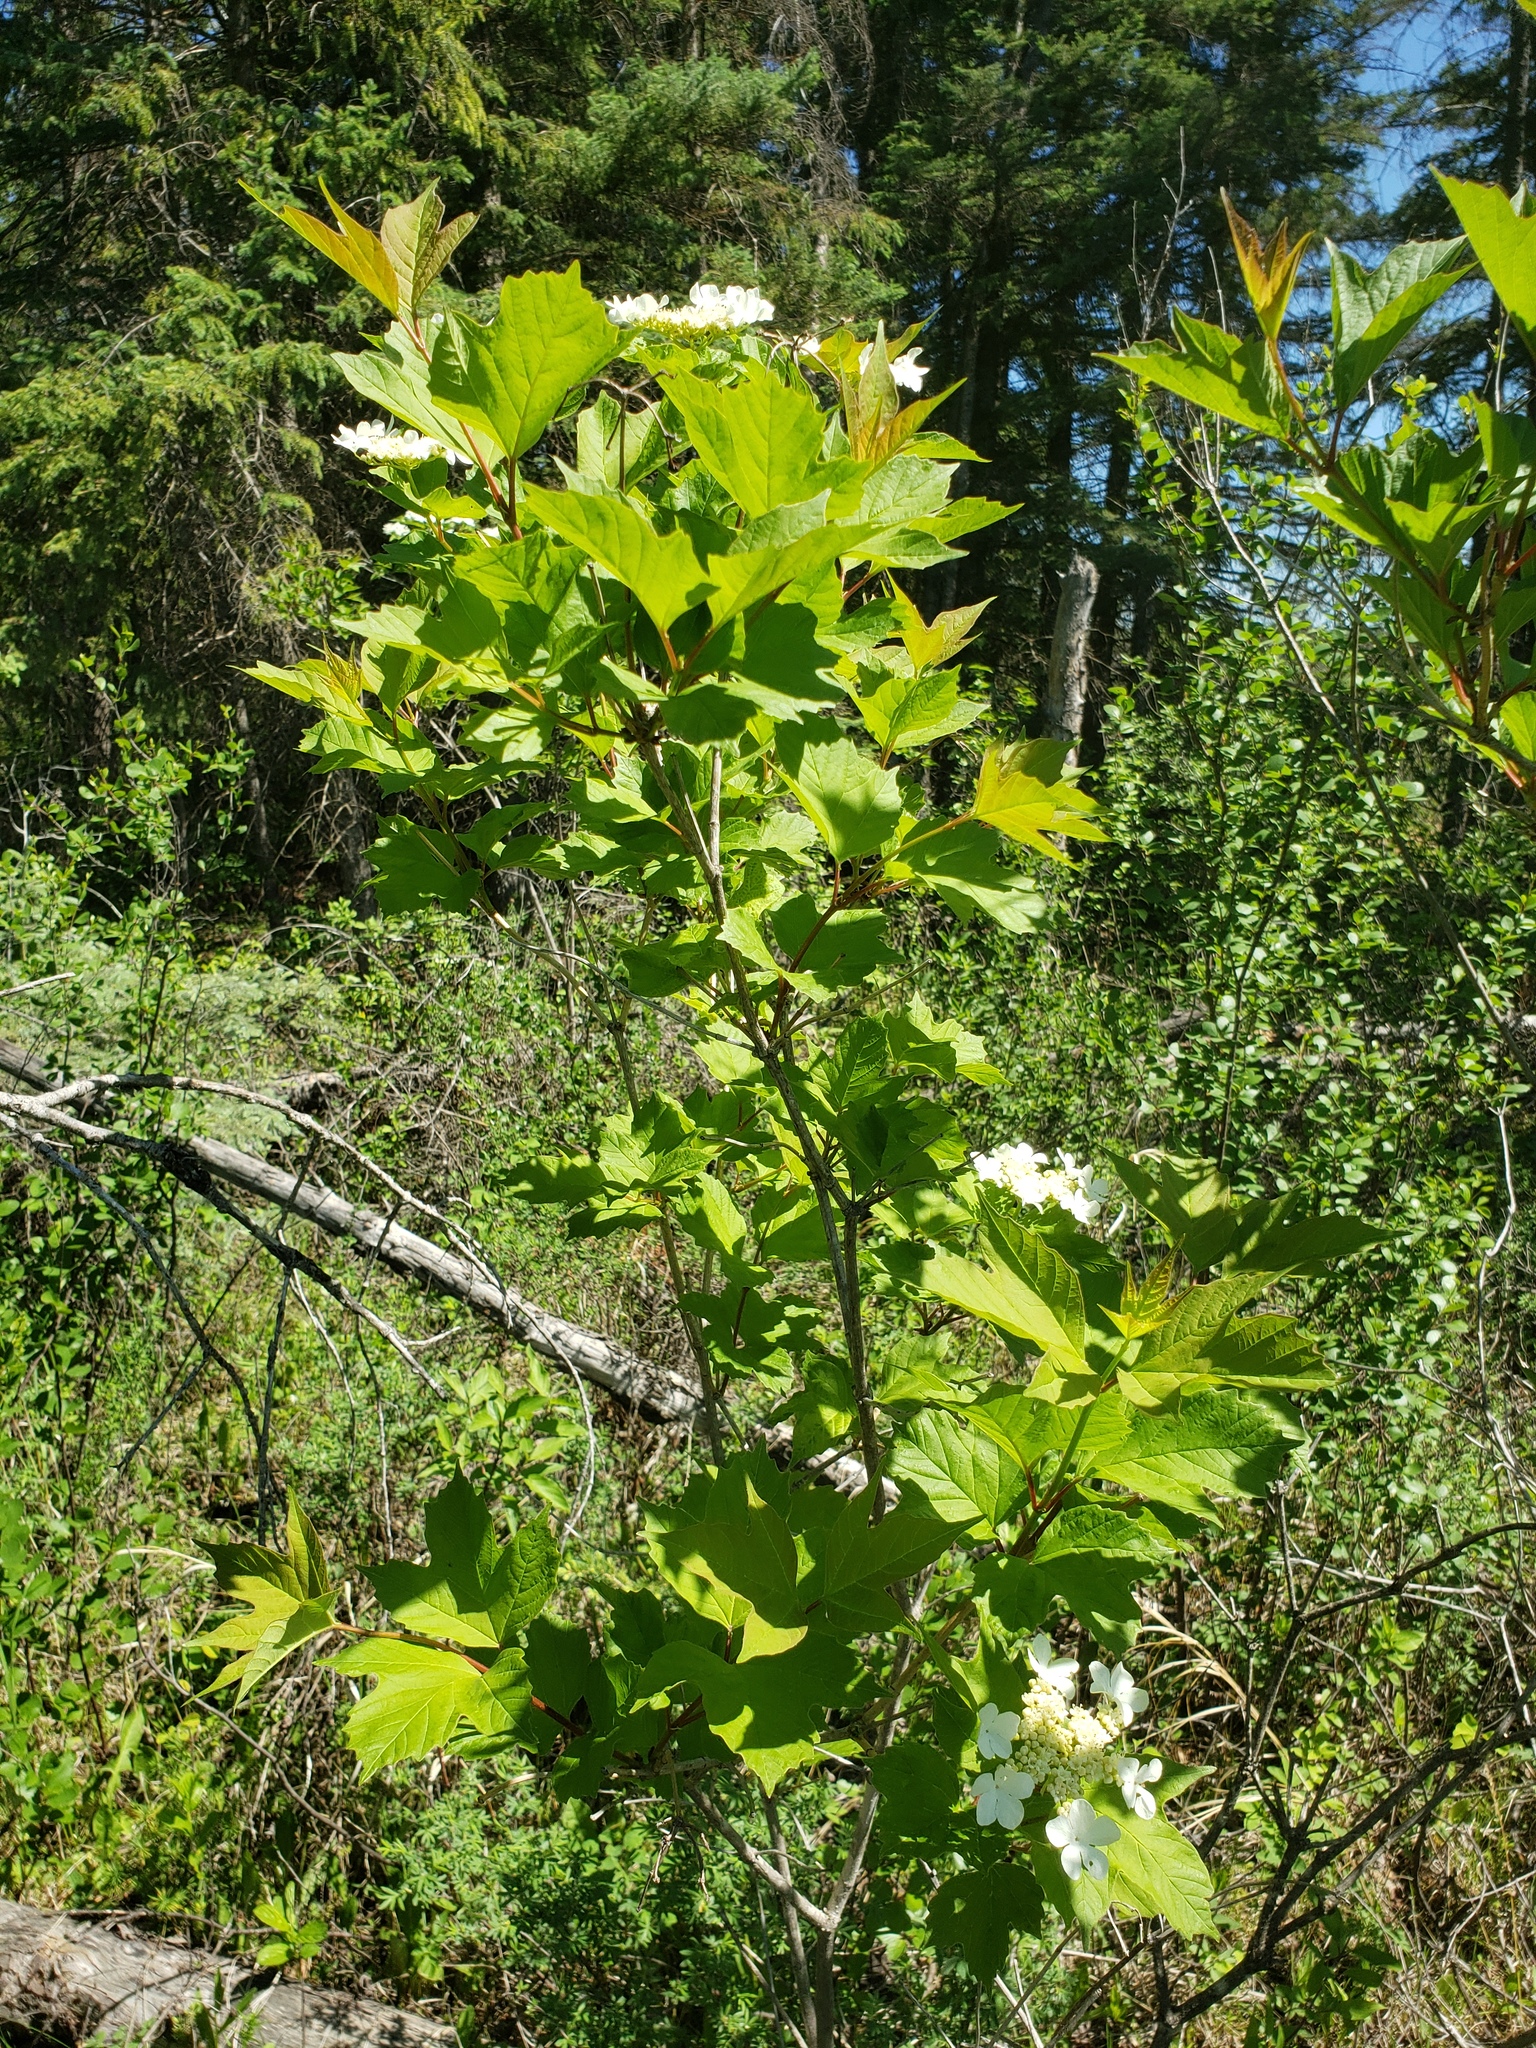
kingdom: Plantae
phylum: Tracheophyta
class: Magnoliopsida
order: Dipsacales
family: Viburnaceae
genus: Viburnum
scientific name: Viburnum opulus
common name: Guelder-rose
